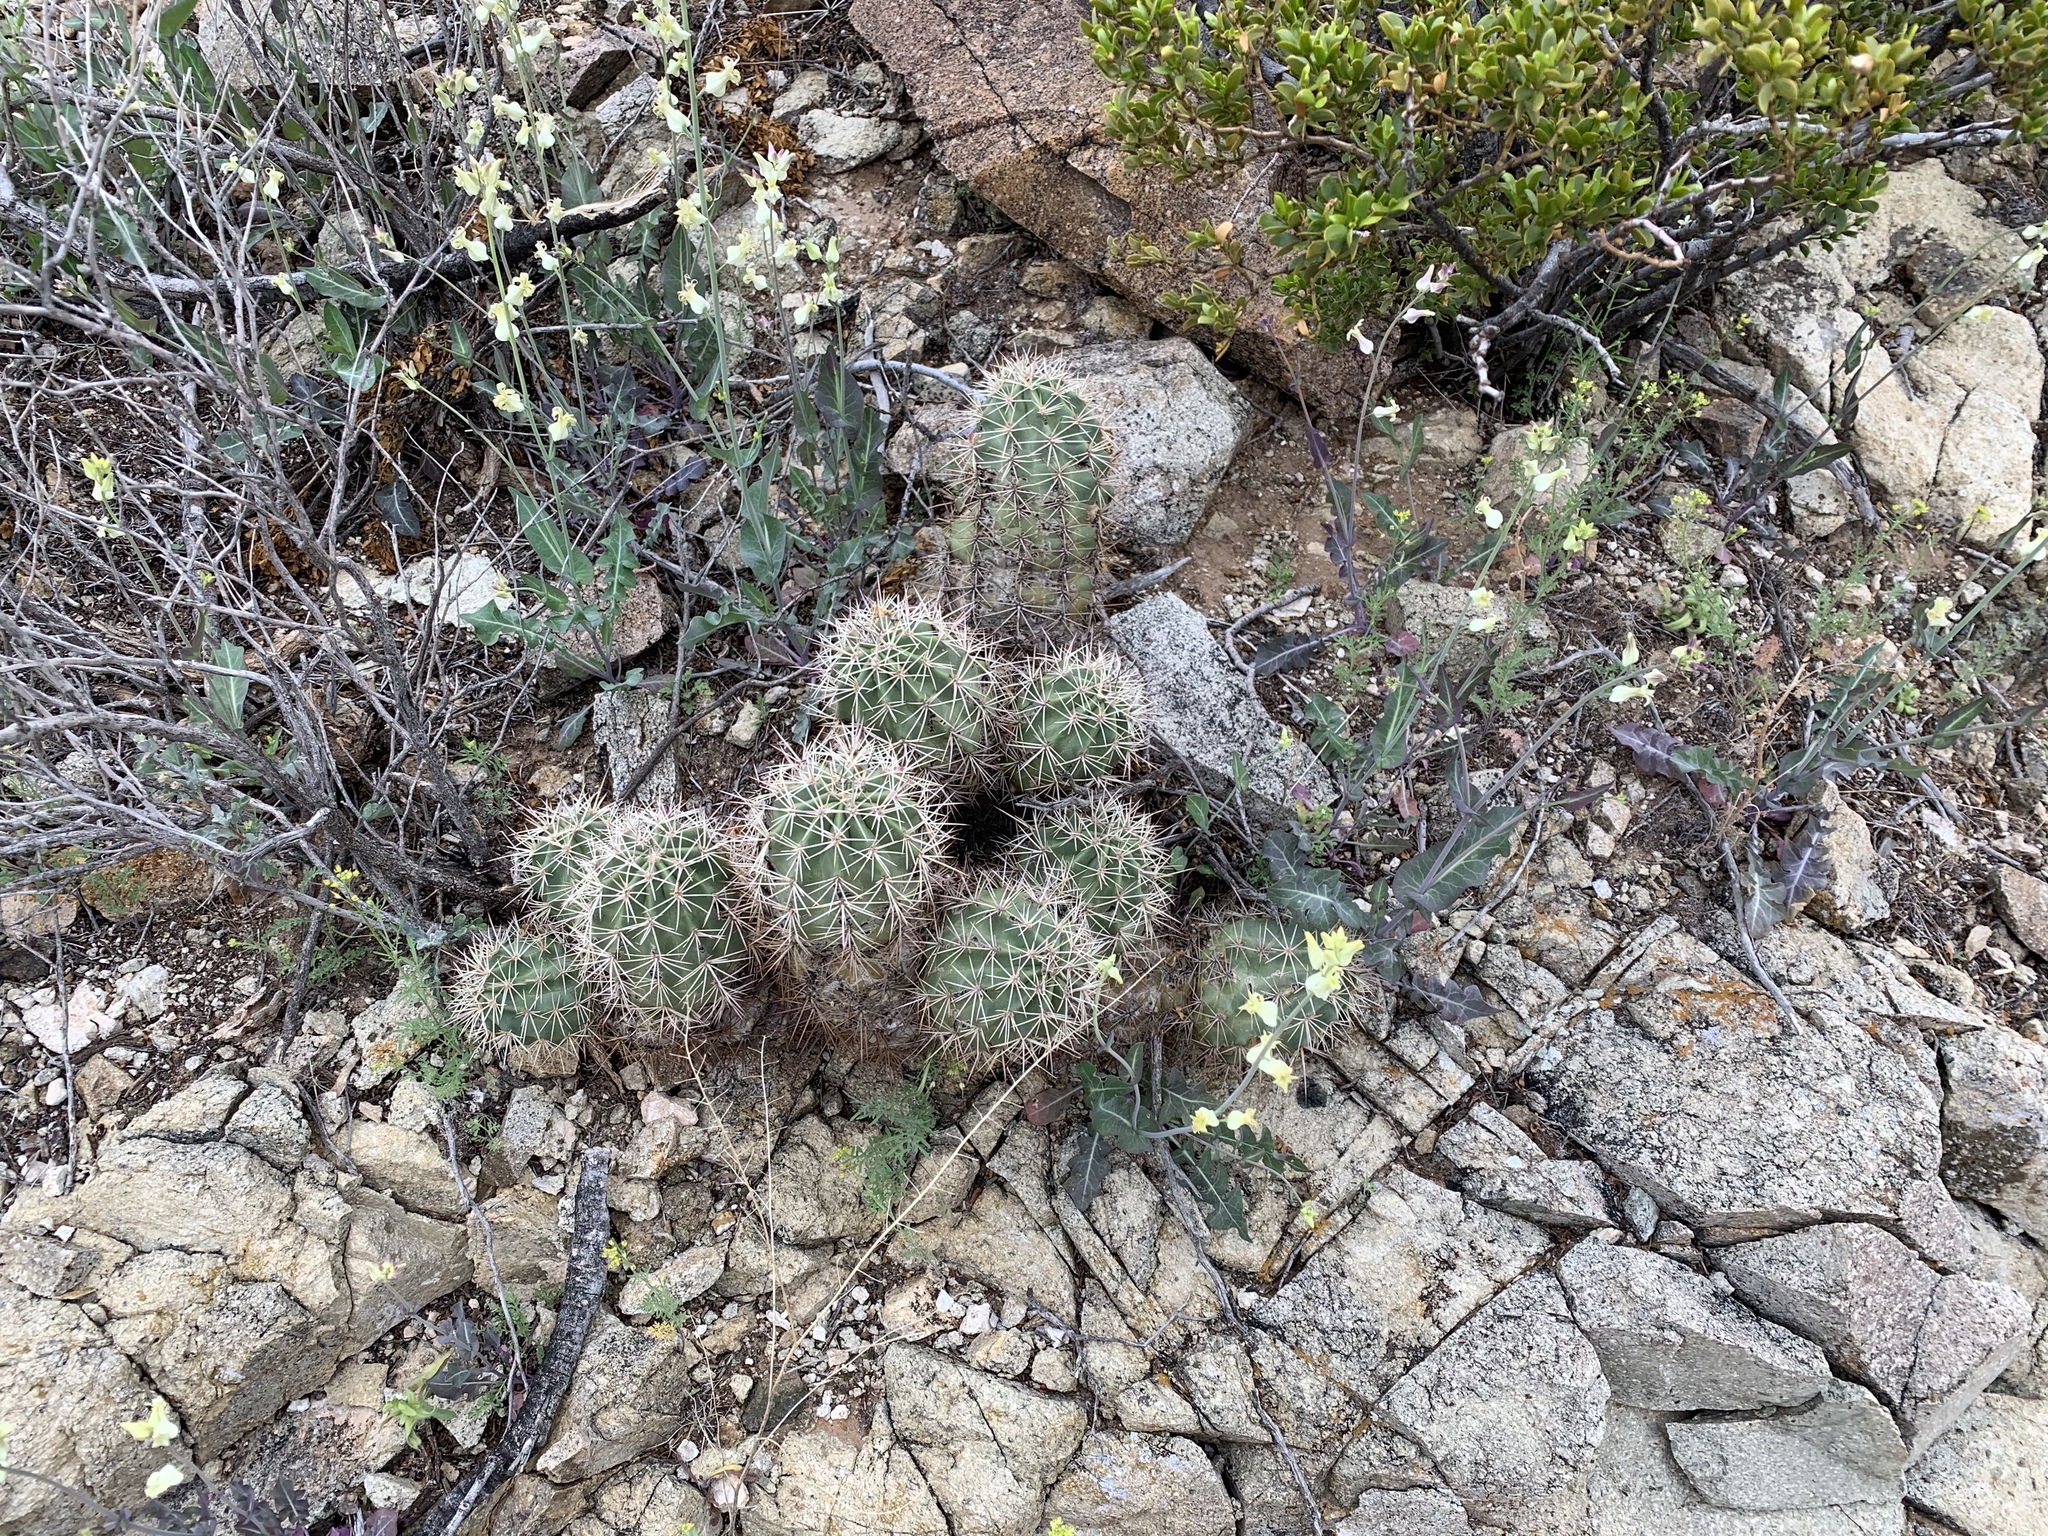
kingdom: Plantae
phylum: Tracheophyta
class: Magnoliopsida
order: Caryophyllales
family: Cactaceae
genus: Echinocereus
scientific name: Echinocereus coccineus
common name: Scarlet hedgehog cactus
